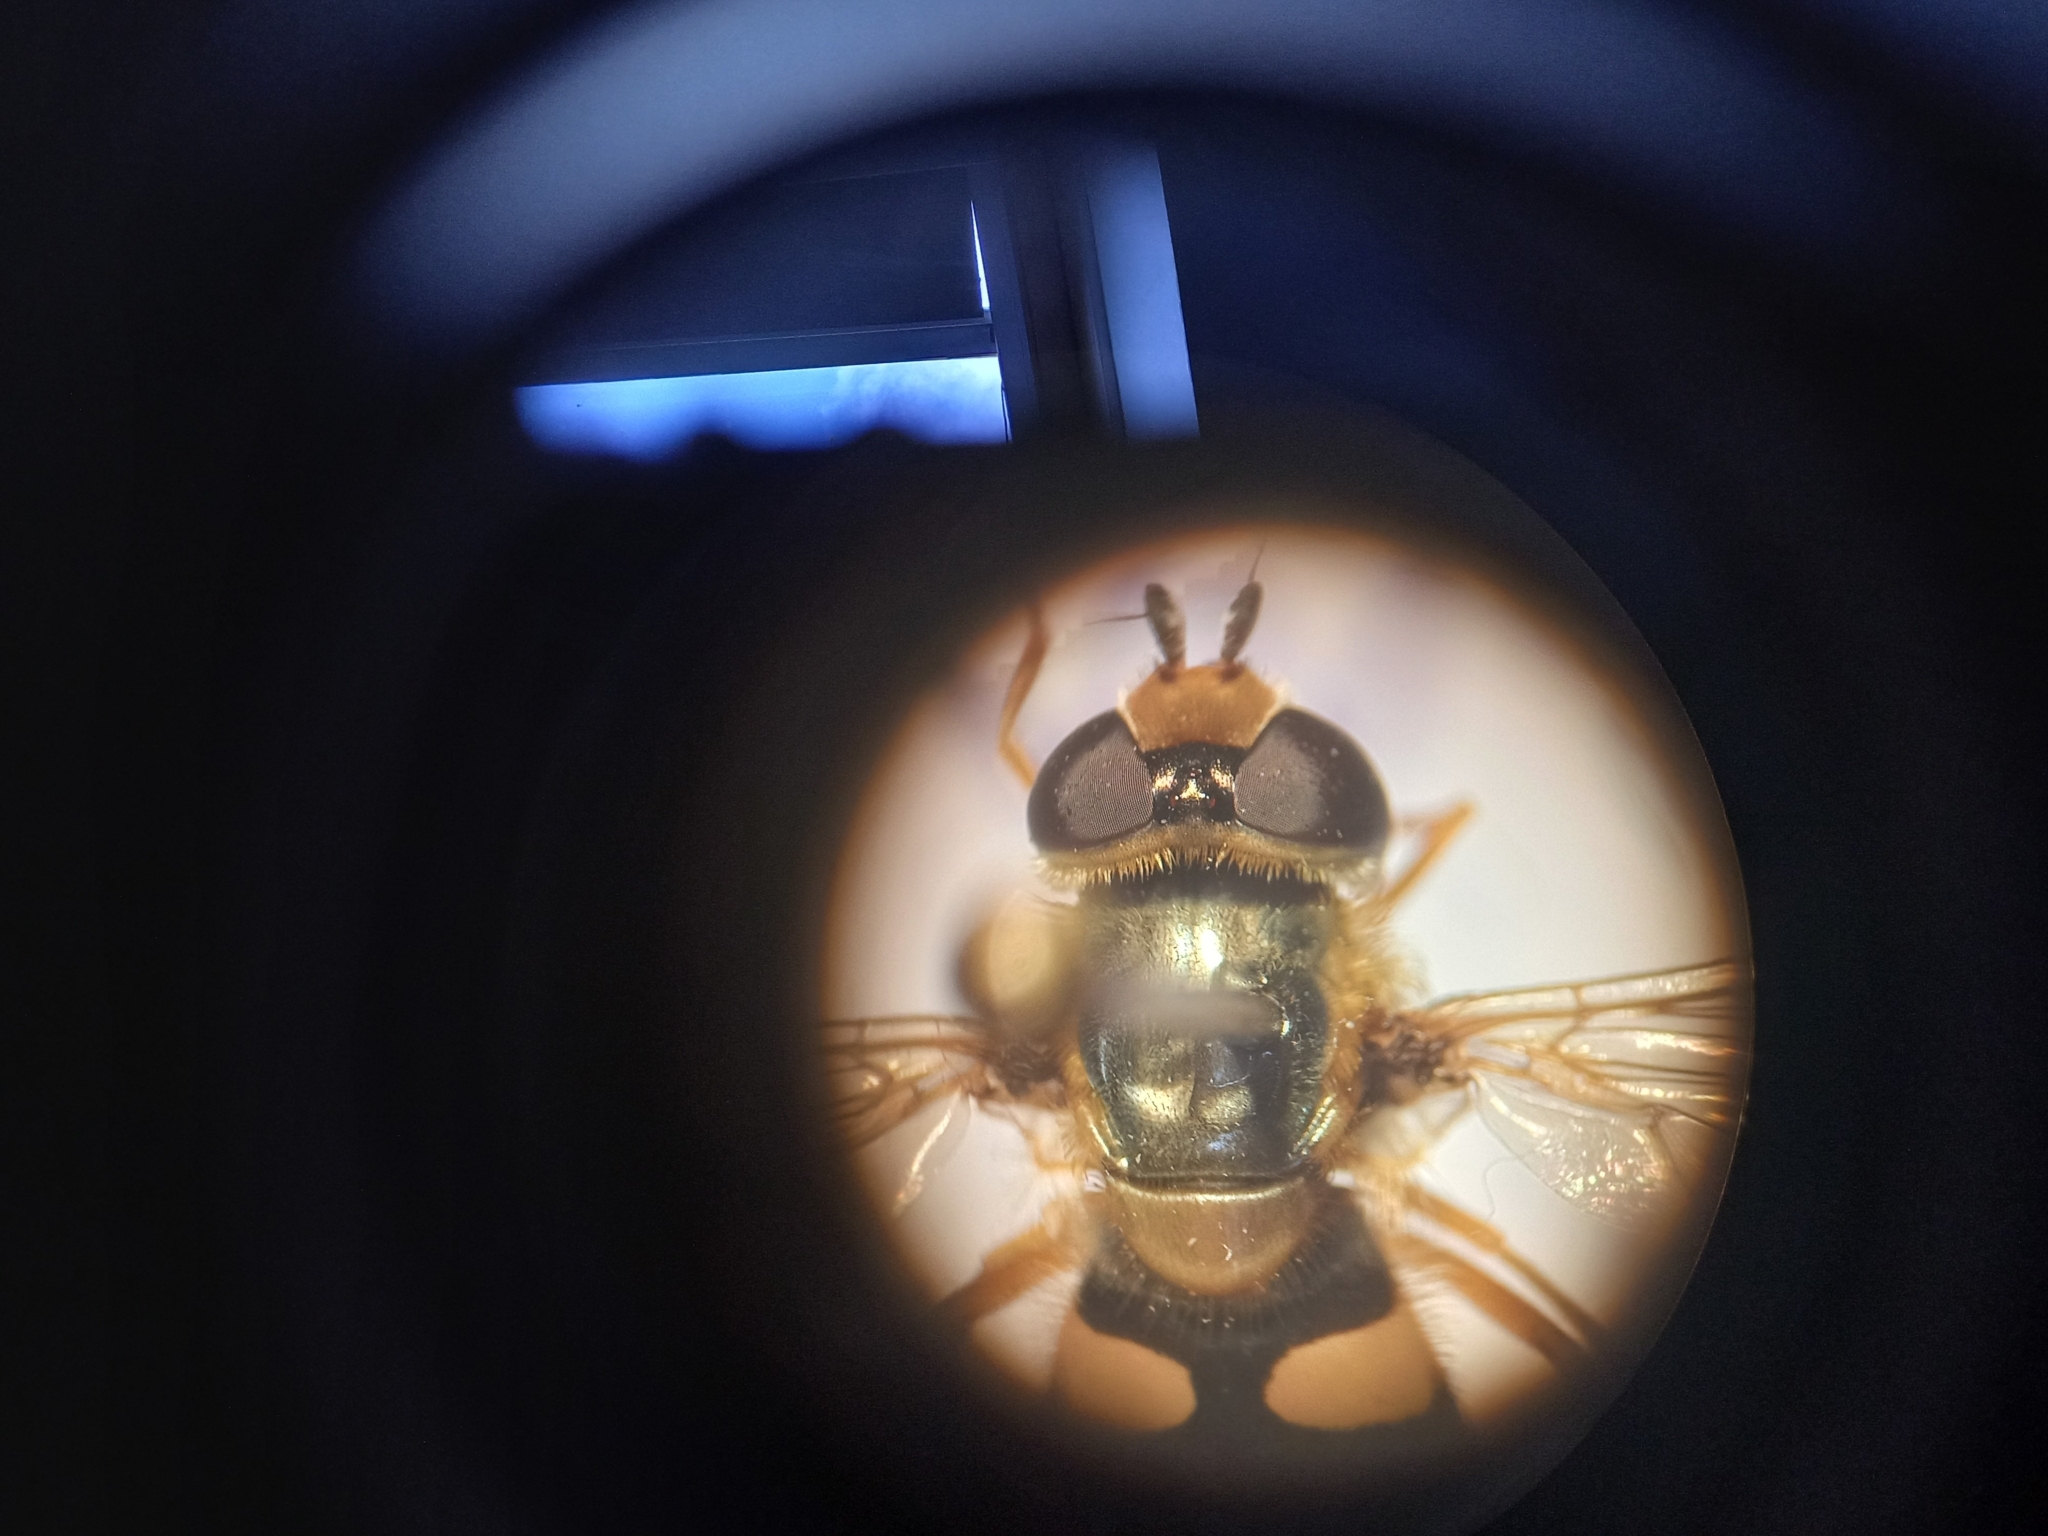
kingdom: Animalia
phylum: Arthropoda
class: Insecta
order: Diptera
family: Syrphidae
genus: Eupeodes
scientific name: Eupeodes corollae
